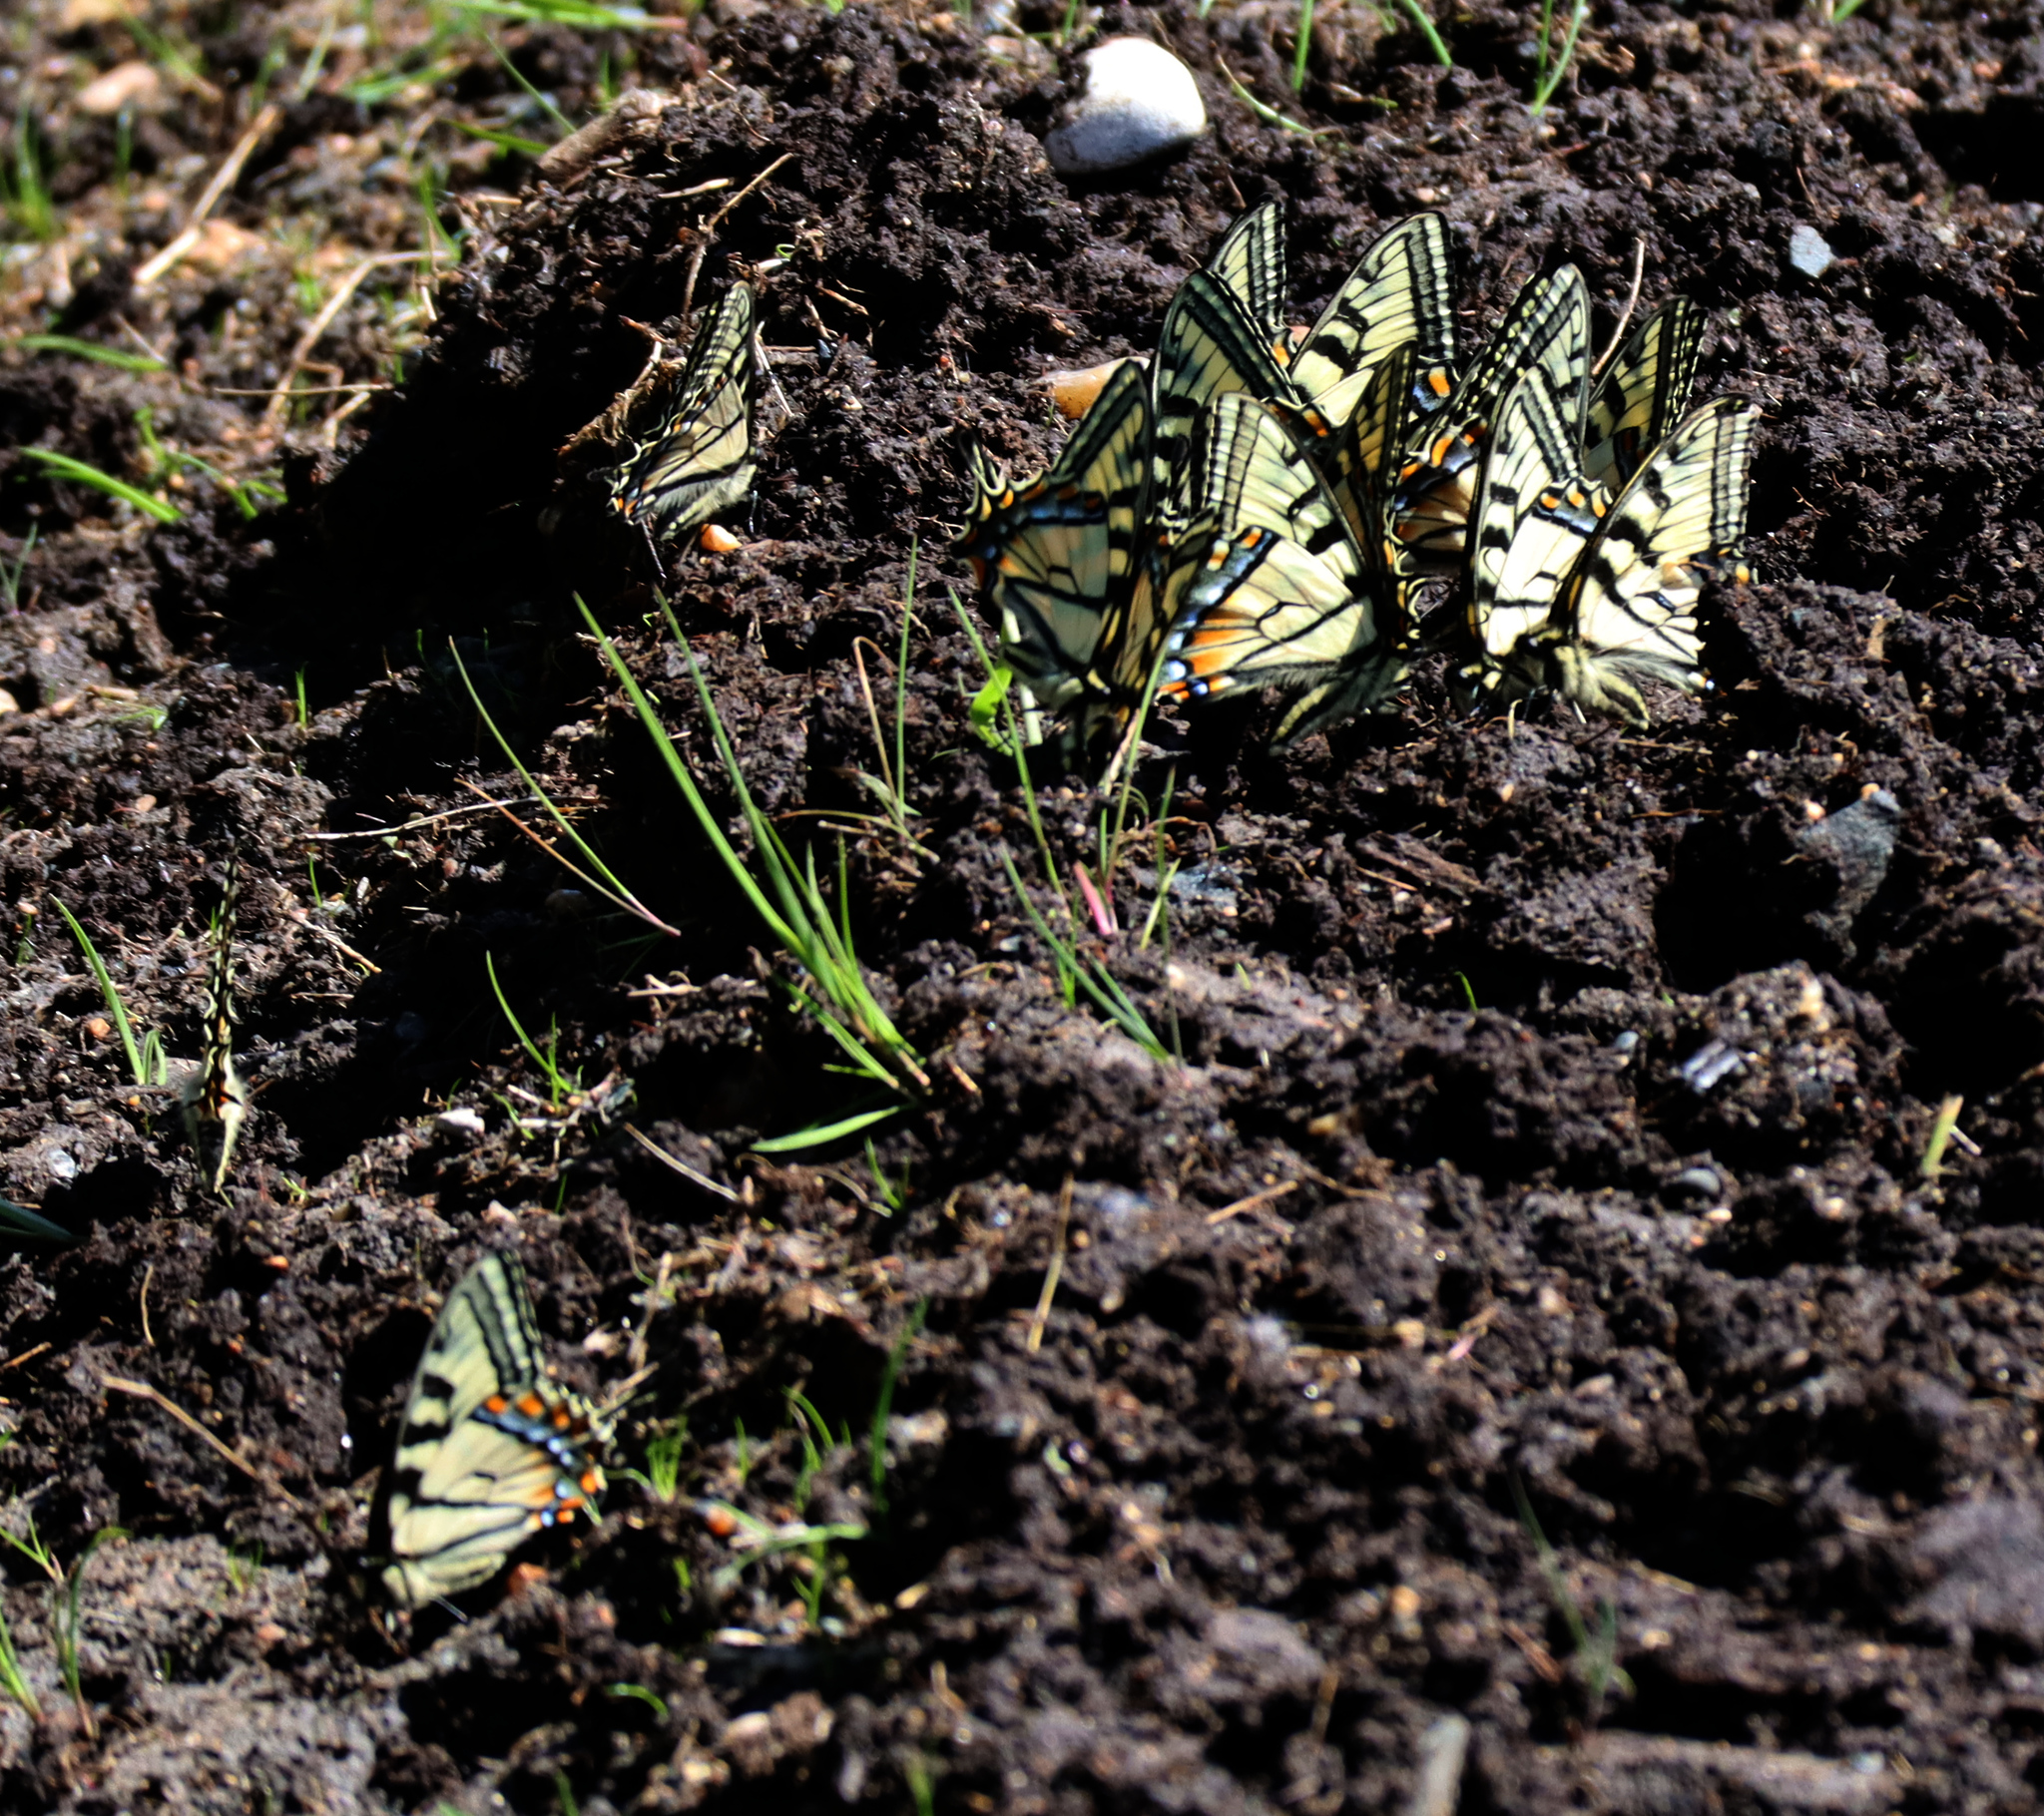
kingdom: Animalia
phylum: Arthropoda
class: Insecta
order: Lepidoptera
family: Papilionidae
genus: Papilio
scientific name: Papilio canadensis
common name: Canadian tiger swallowtail
